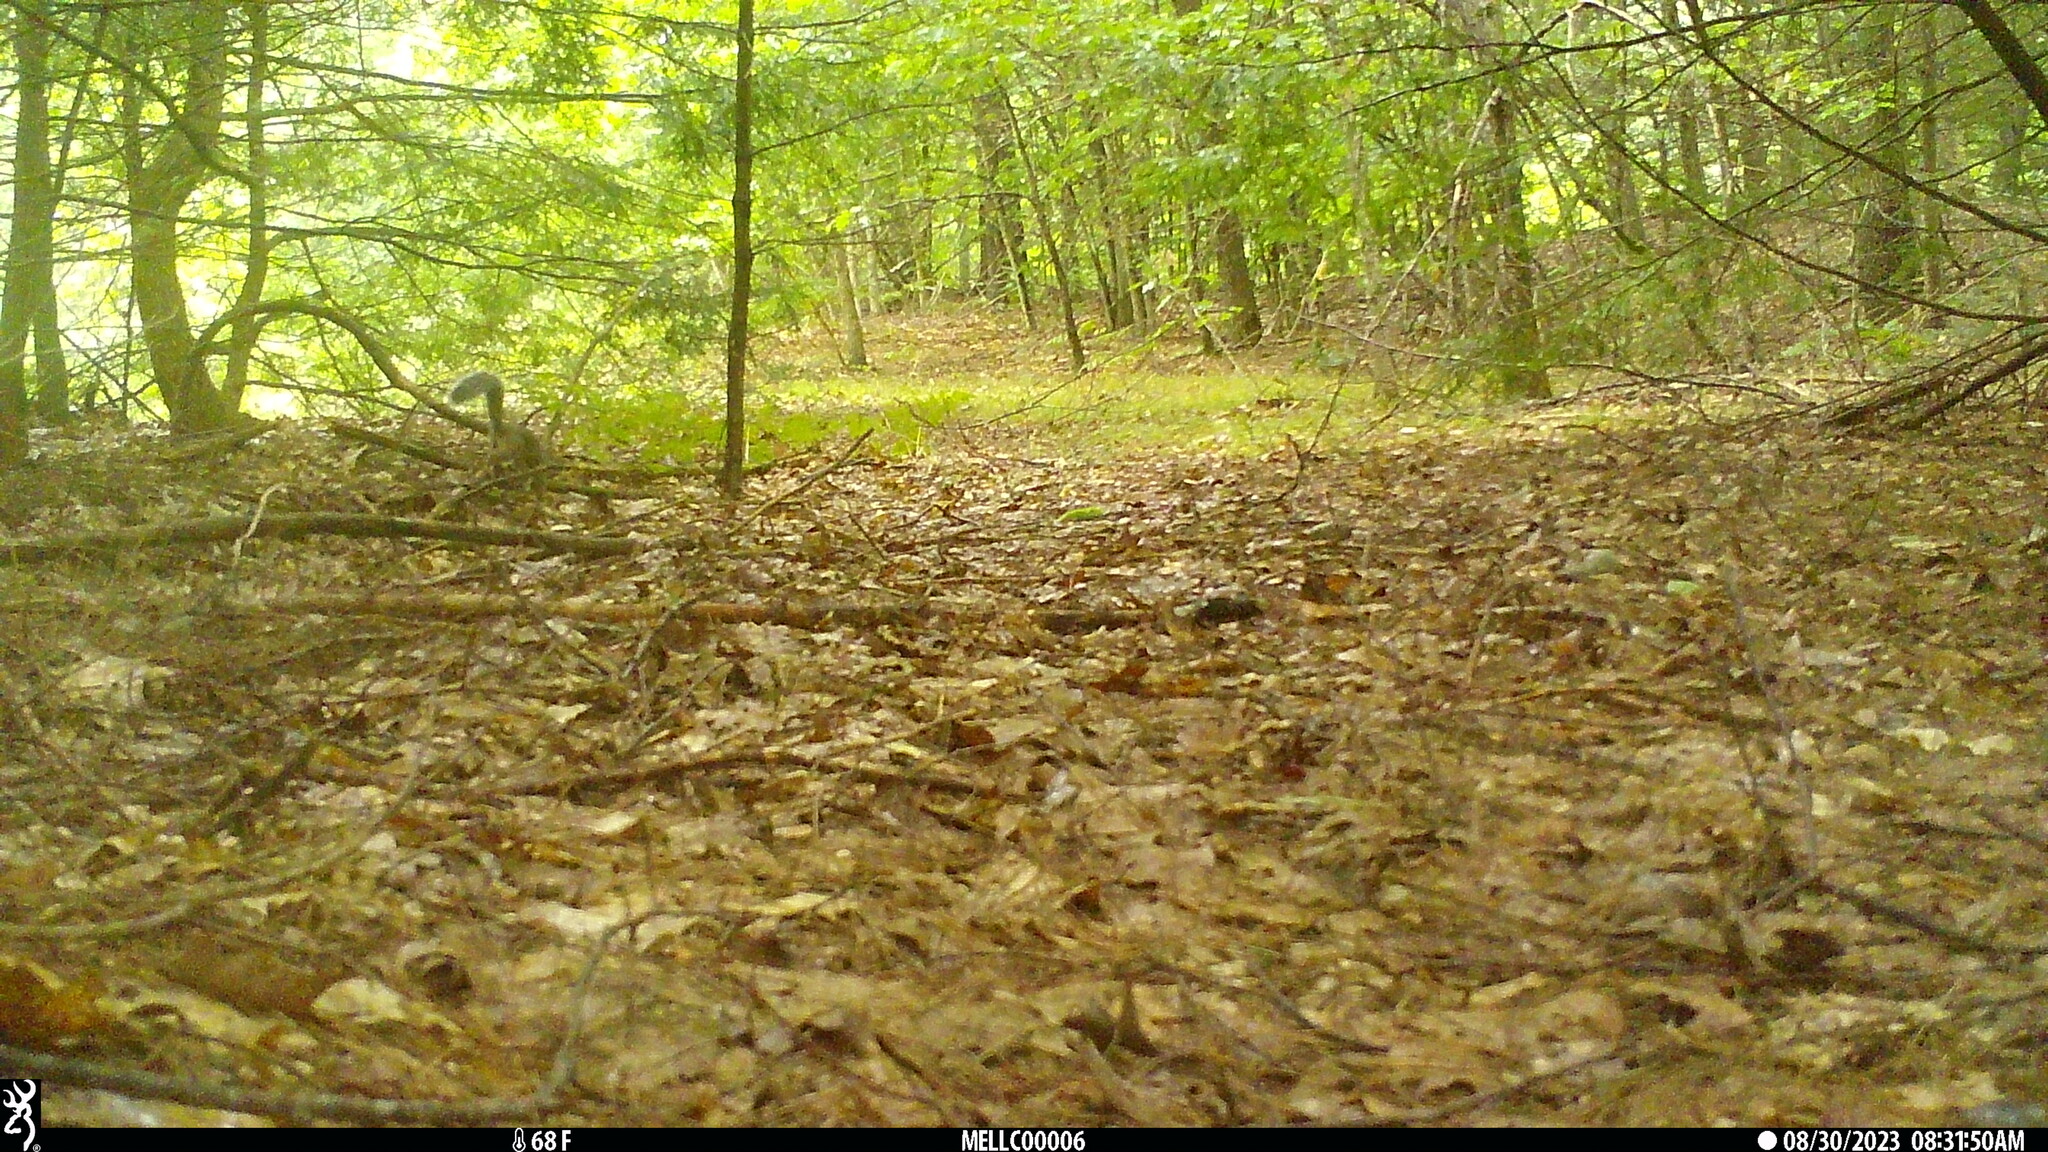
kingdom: Animalia
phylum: Chordata
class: Mammalia
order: Rodentia
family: Sciuridae
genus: Sciurus
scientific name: Sciurus carolinensis
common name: Eastern gray squirrel
